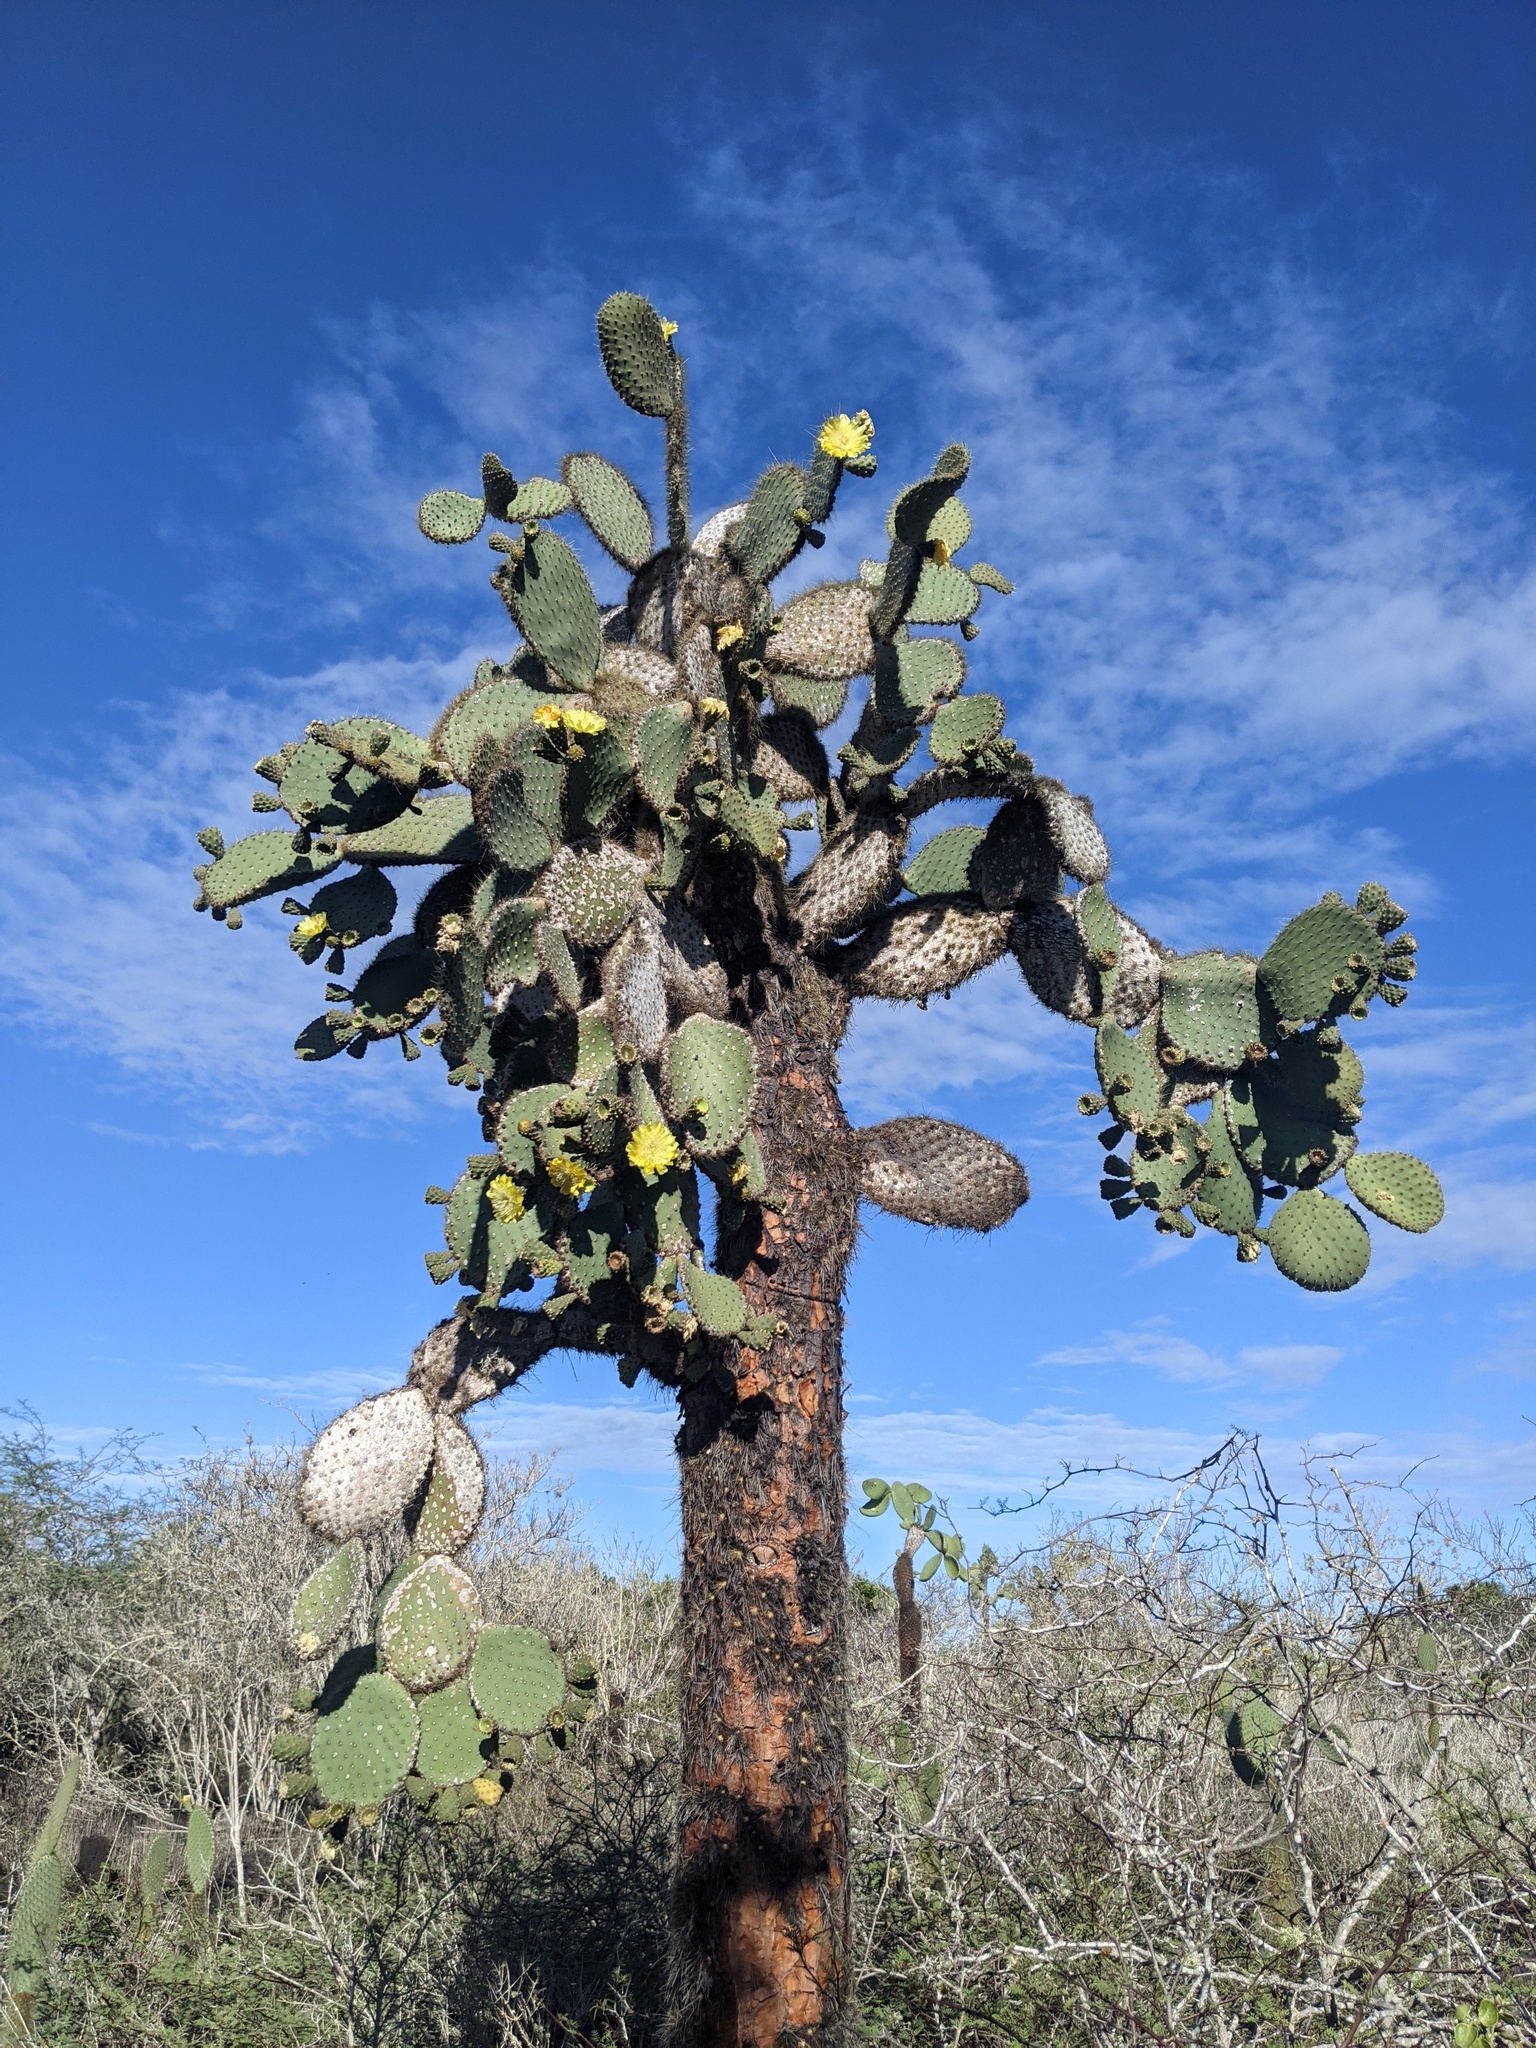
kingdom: Plantae
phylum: Tracheophyta
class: Magnoliopsida
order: Caryophyllales
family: Cactaceae
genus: Opuntia
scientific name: Opuntia galapageia
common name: Galápagos prickly pear
